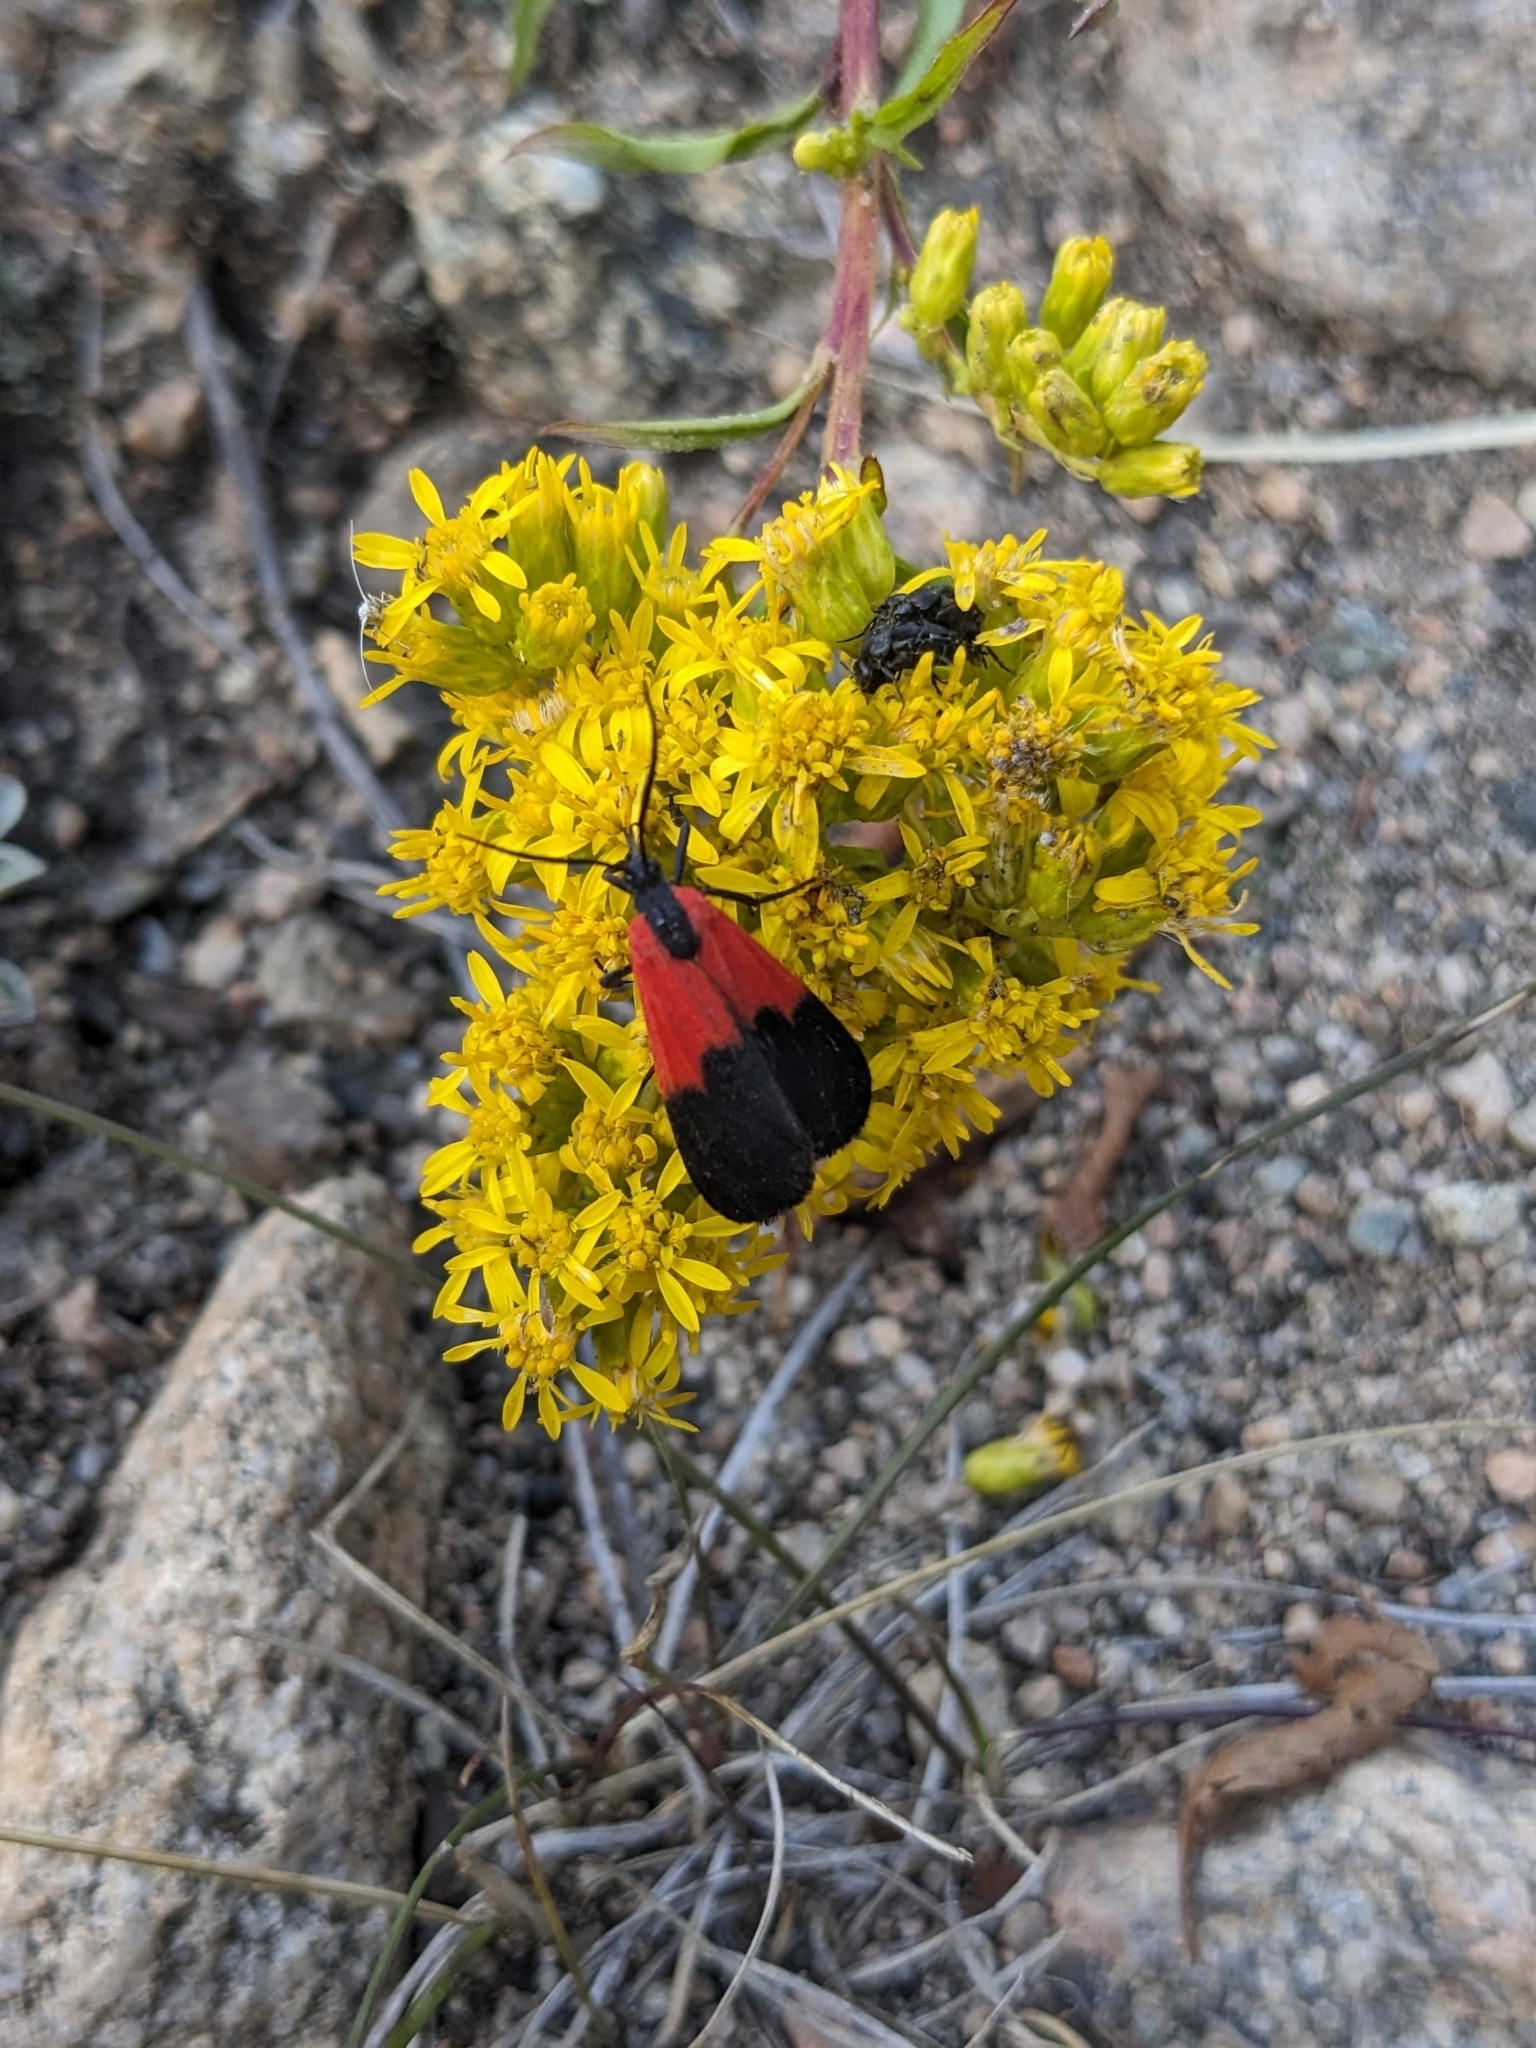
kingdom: Animalia
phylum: Arthropoda
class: Insecta
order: Lepidoptera
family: Erebidae
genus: Lycomorpha
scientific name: Lycomorpha pholus
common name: Black-and-yellow lichen moth
